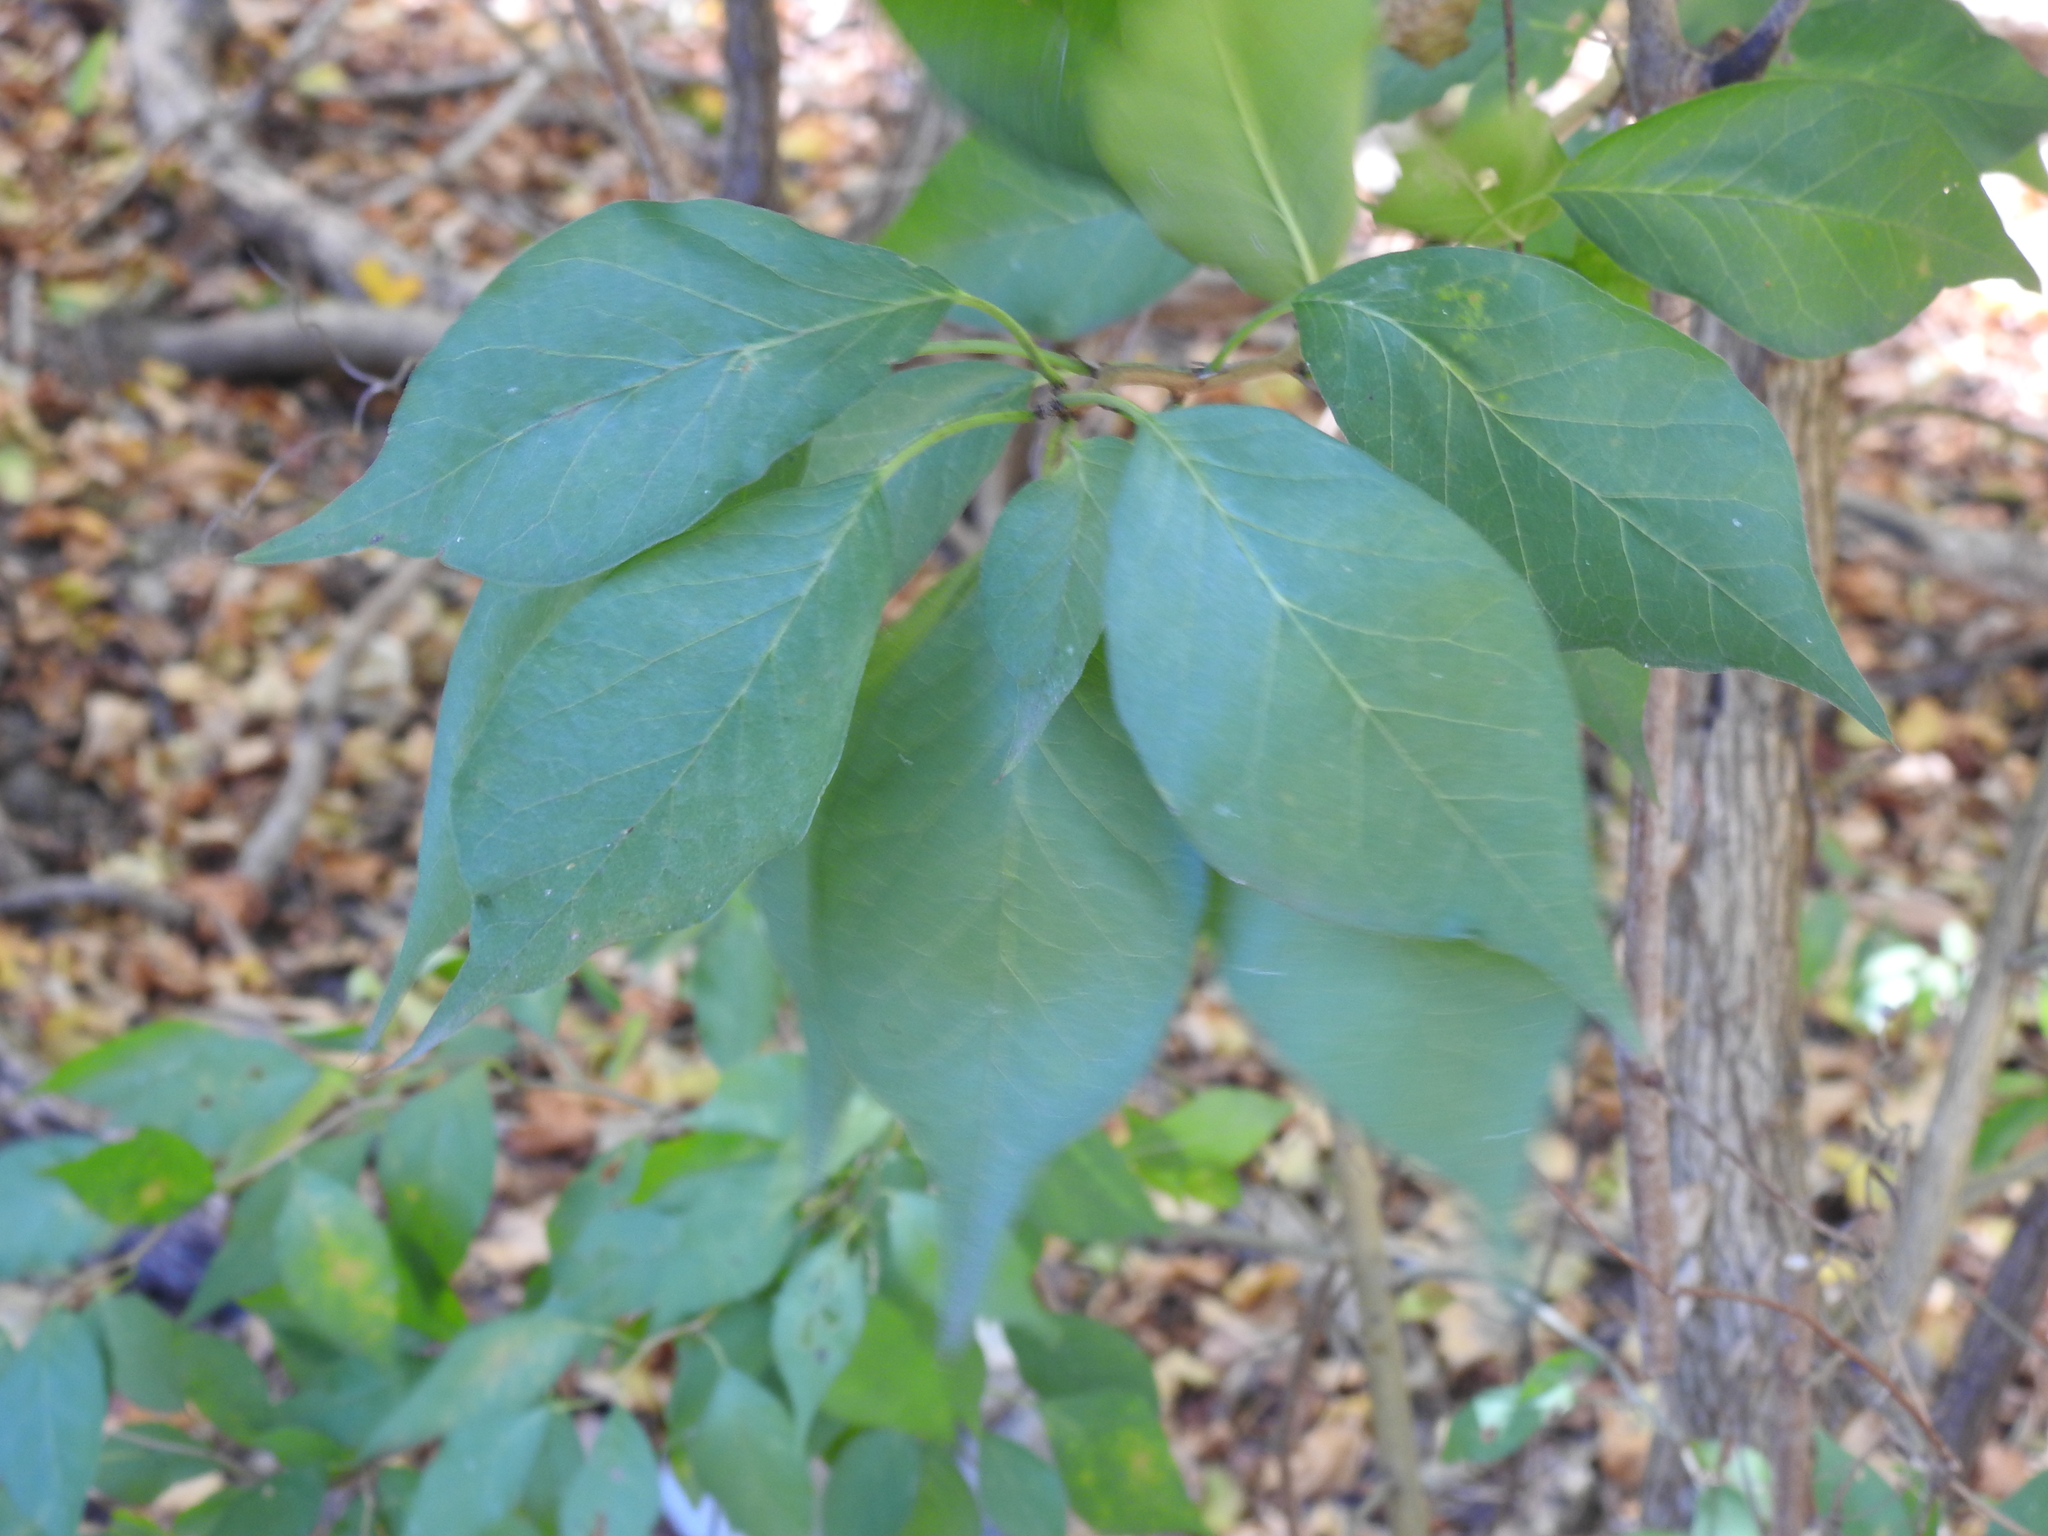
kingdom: Plantae
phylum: Tracheophyta
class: Magnoliopsida
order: Rosales
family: Moraceae
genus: Maclura
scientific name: Maclura pomifera
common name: Osage-orange
